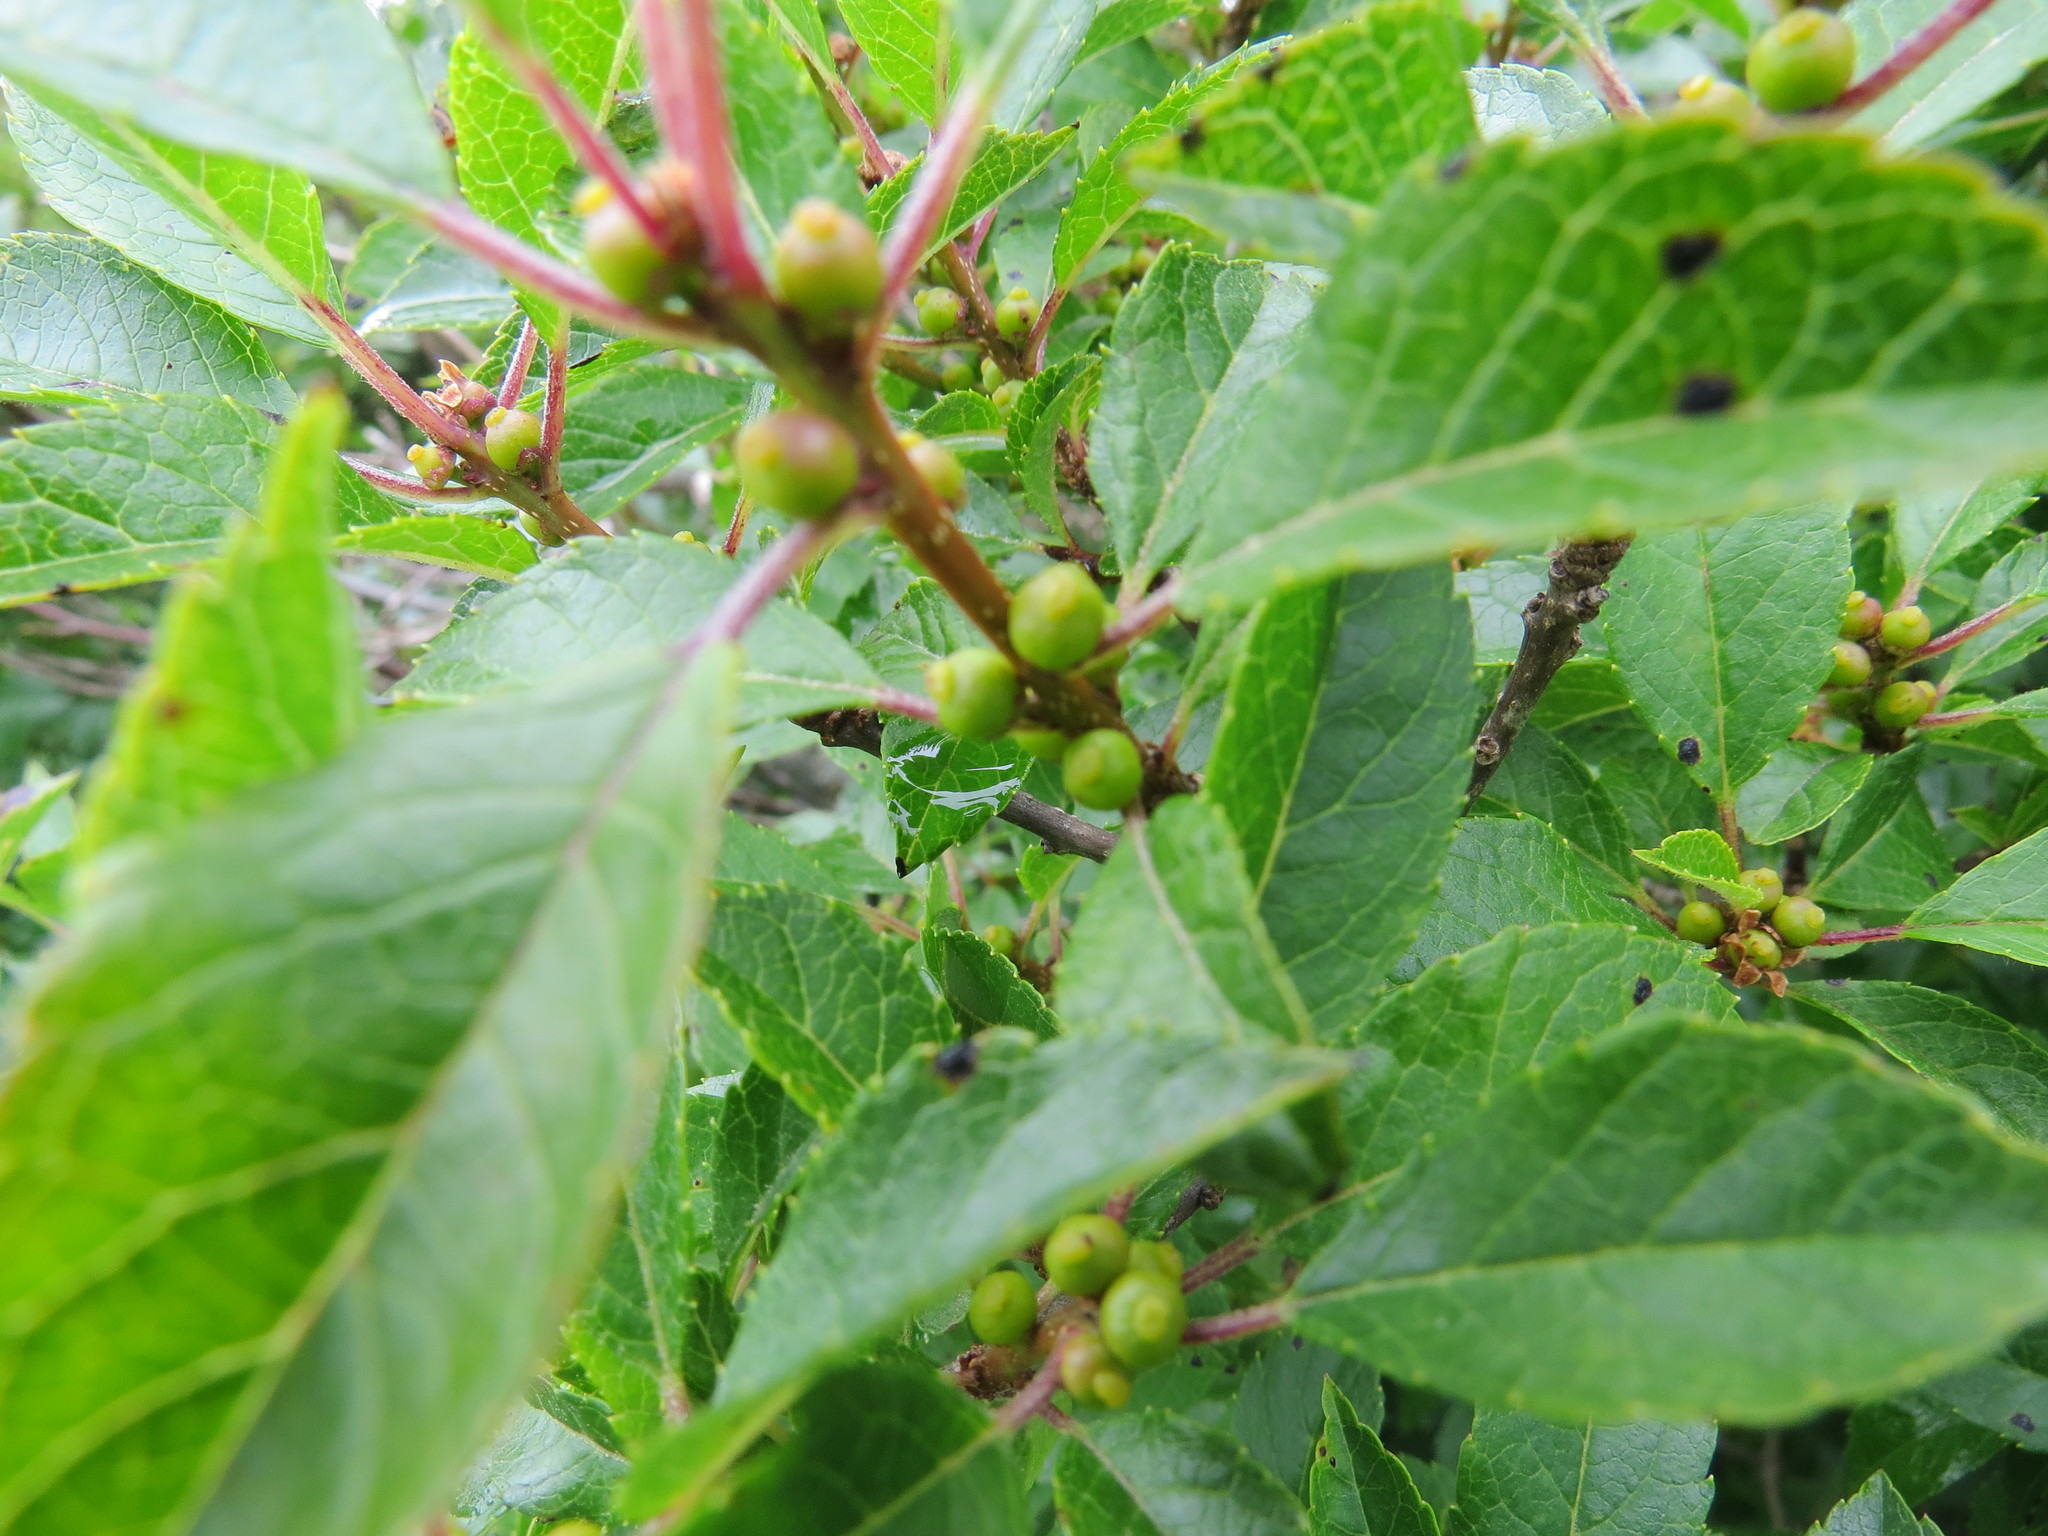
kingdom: Plantae
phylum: Tracheophyta
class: Magnoliopsida
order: Aquifoliales
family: Aquifoliaceae
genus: Ilex
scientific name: Ilex verticillata
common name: Virginia winterberry
